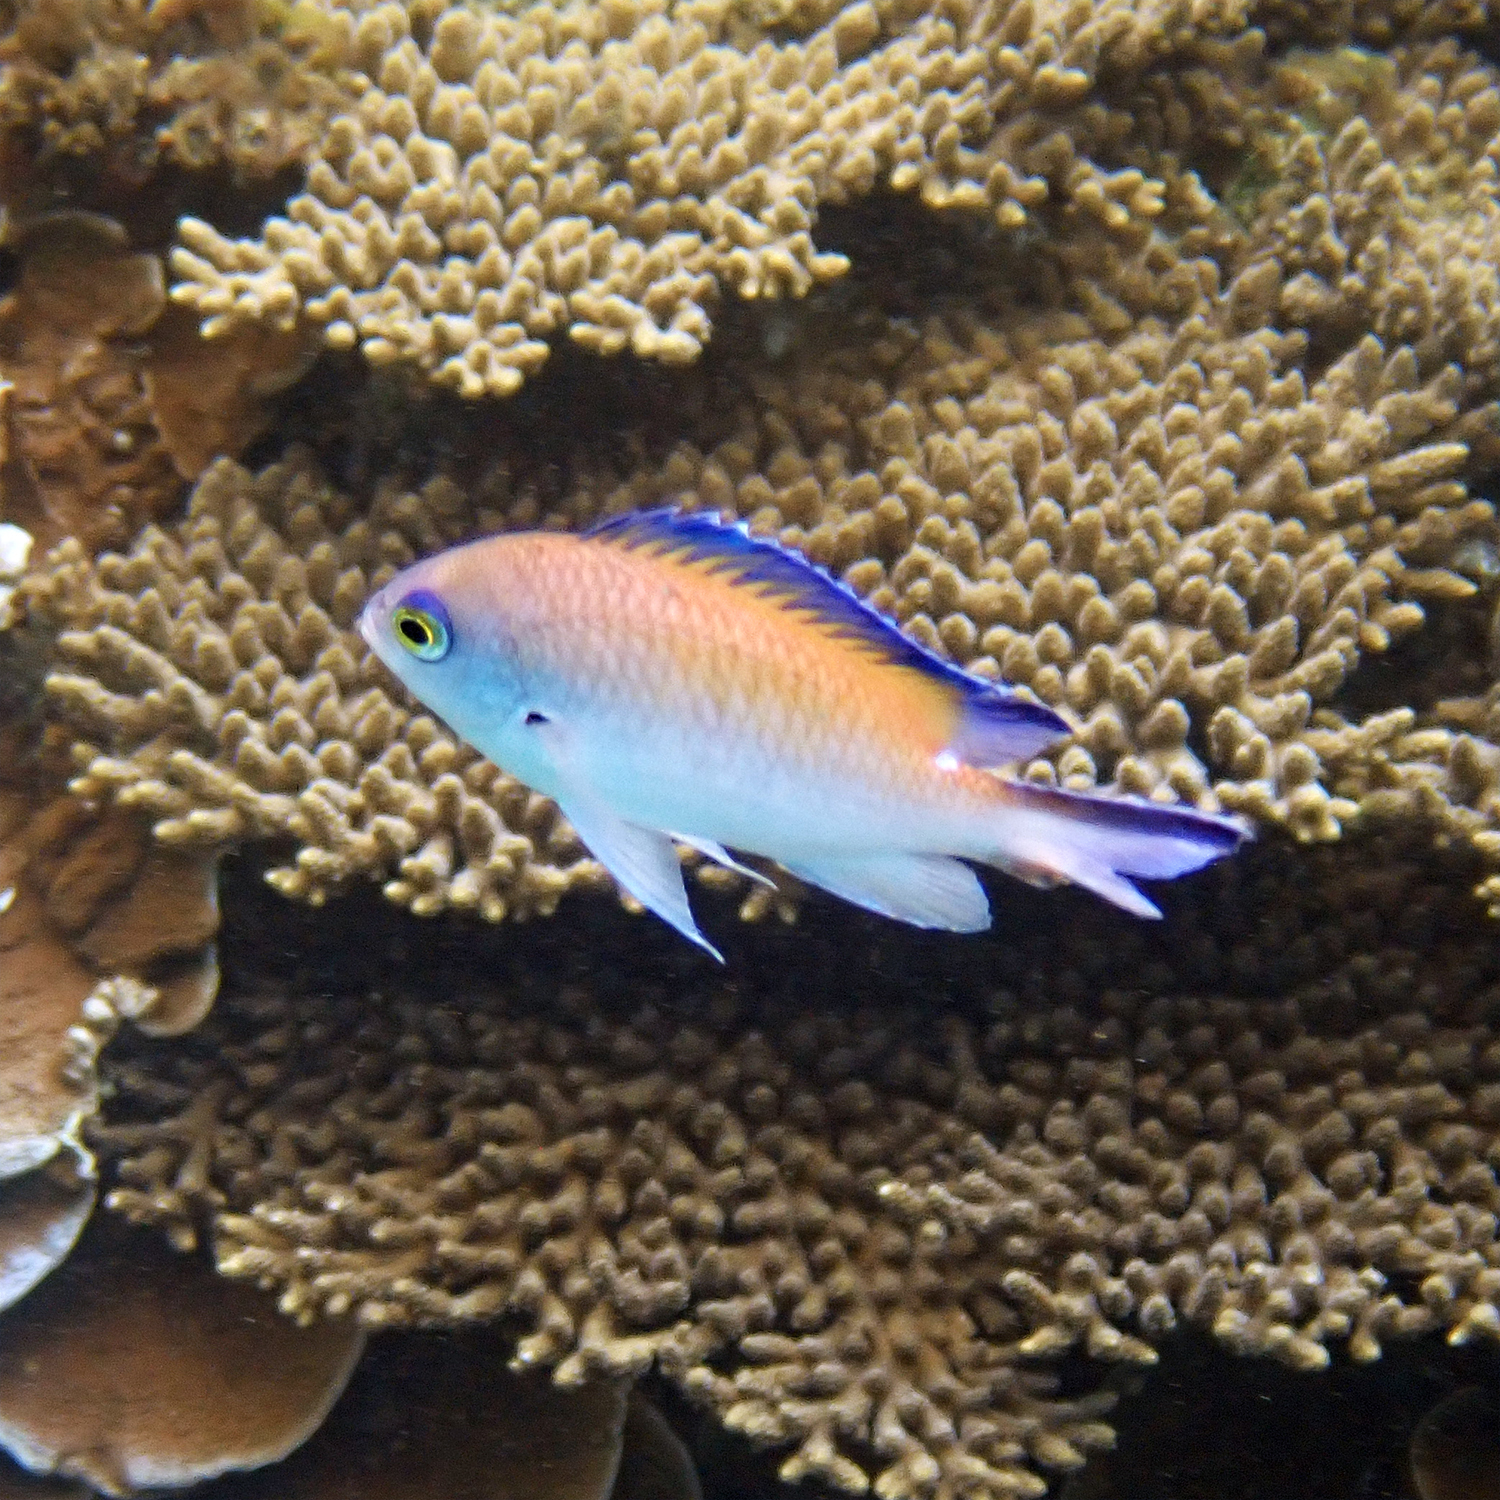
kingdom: Animalia
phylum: Chordata
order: Perciformes
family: Pomacentridae
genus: Chromis
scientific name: Chromis norfolkensis
